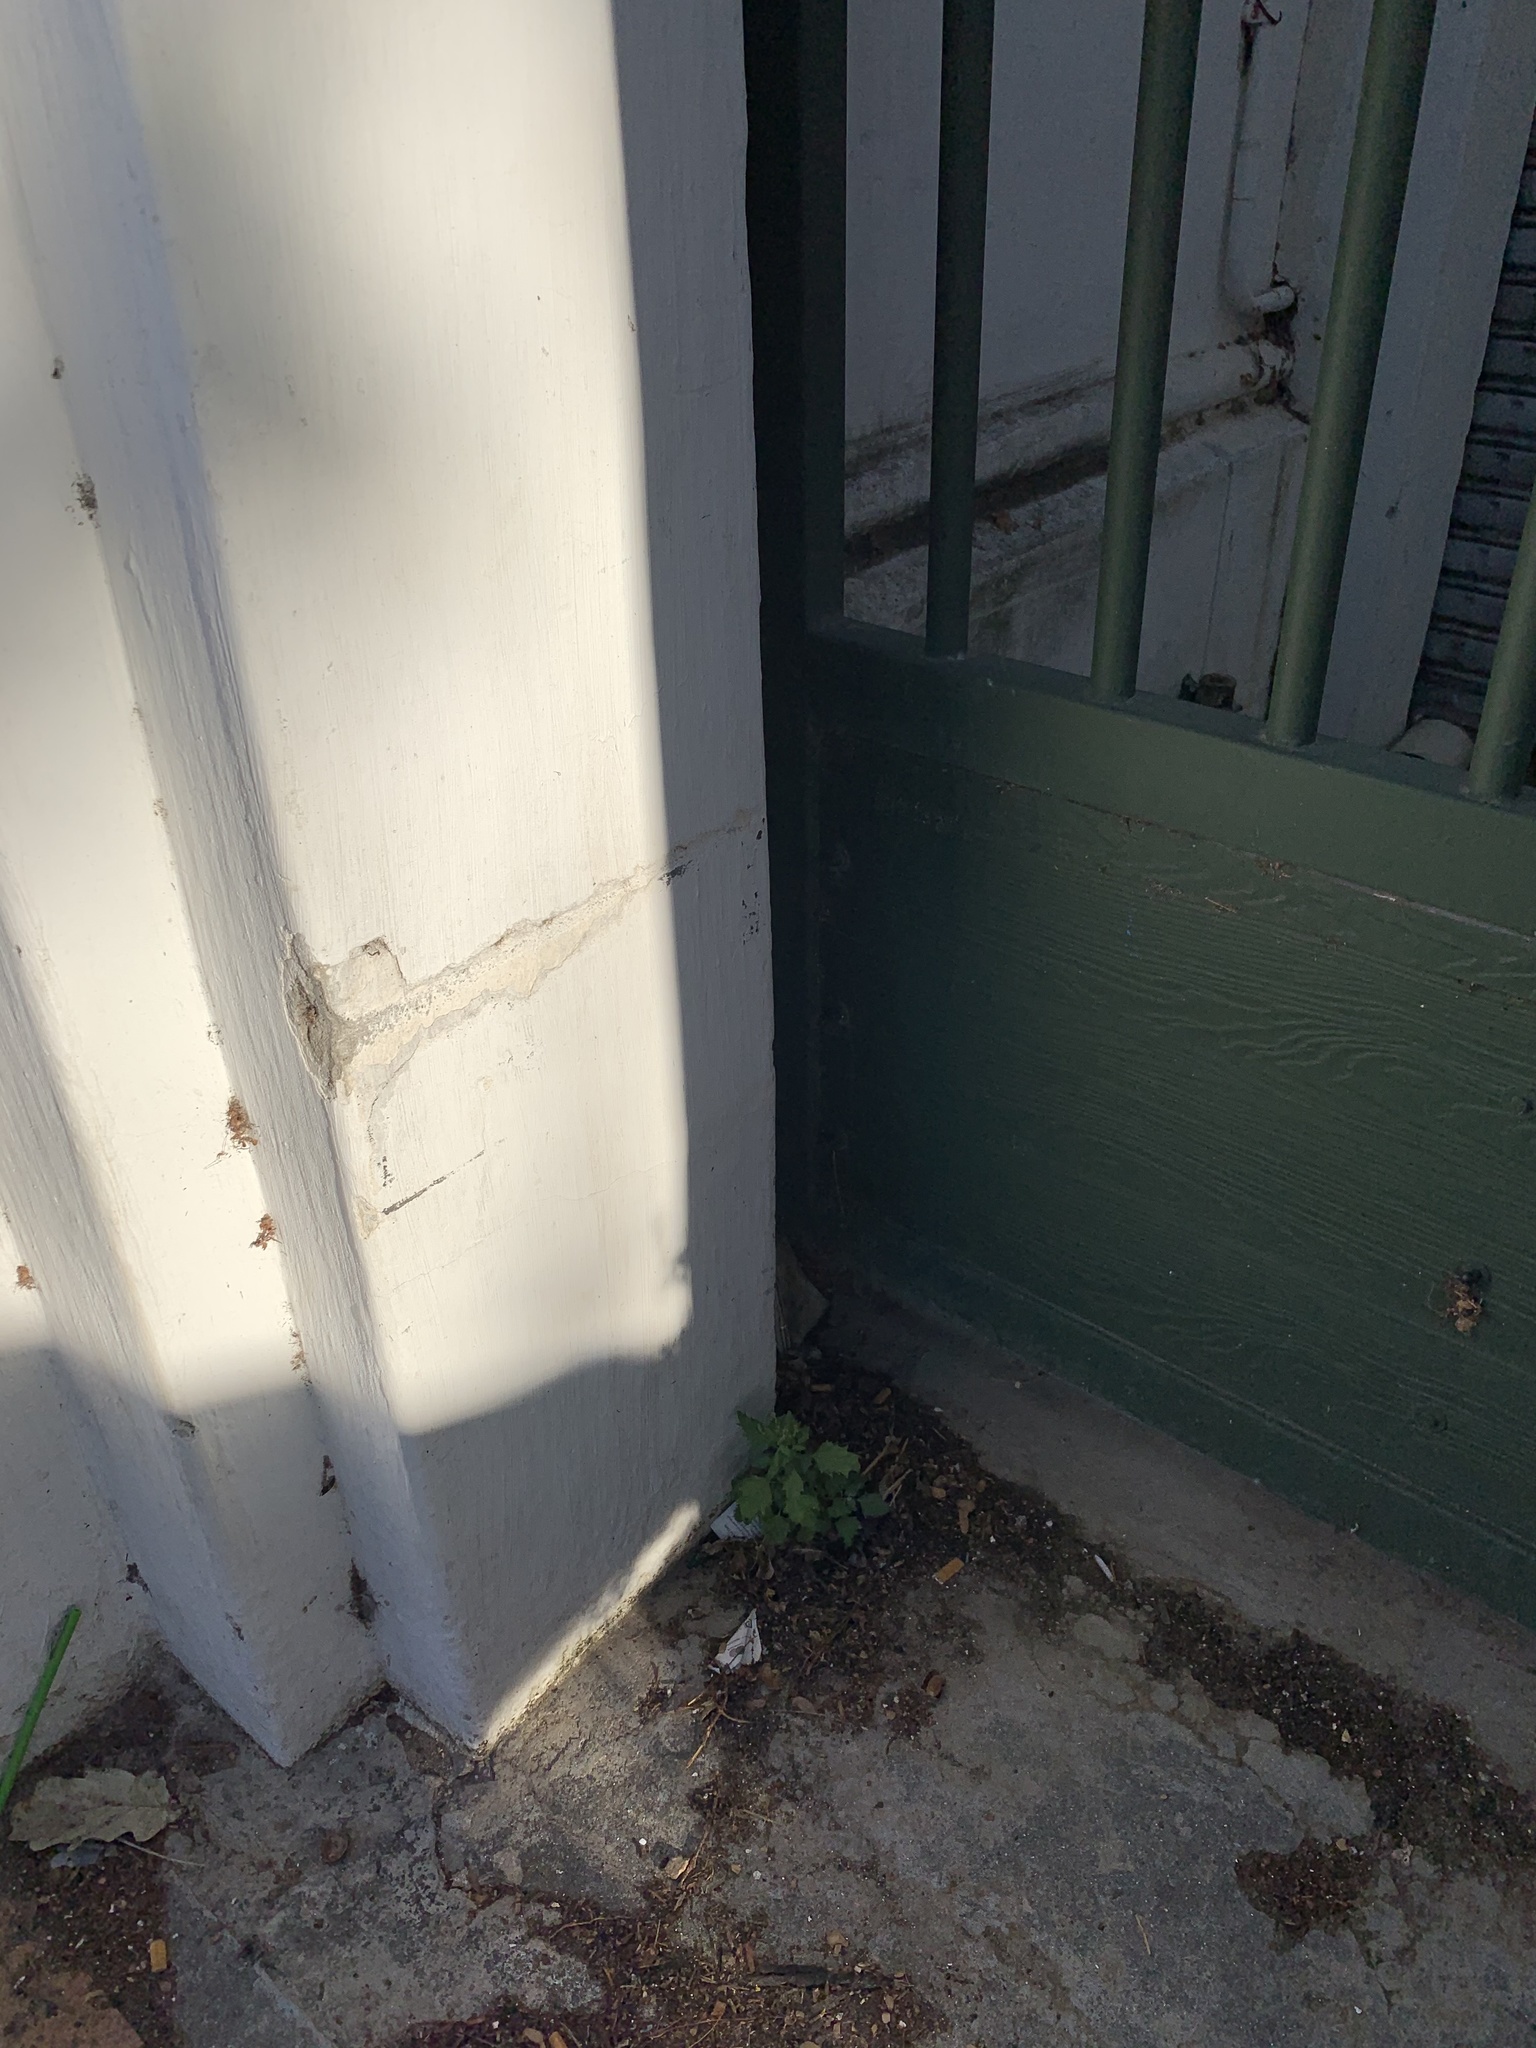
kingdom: Plantae
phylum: Tracheophyta
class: Magnoliopsida
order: Caryophyllales
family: Amaranthaceae
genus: Chenopodiastrum
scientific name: Chenopodiastrum murale
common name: Sowbane
